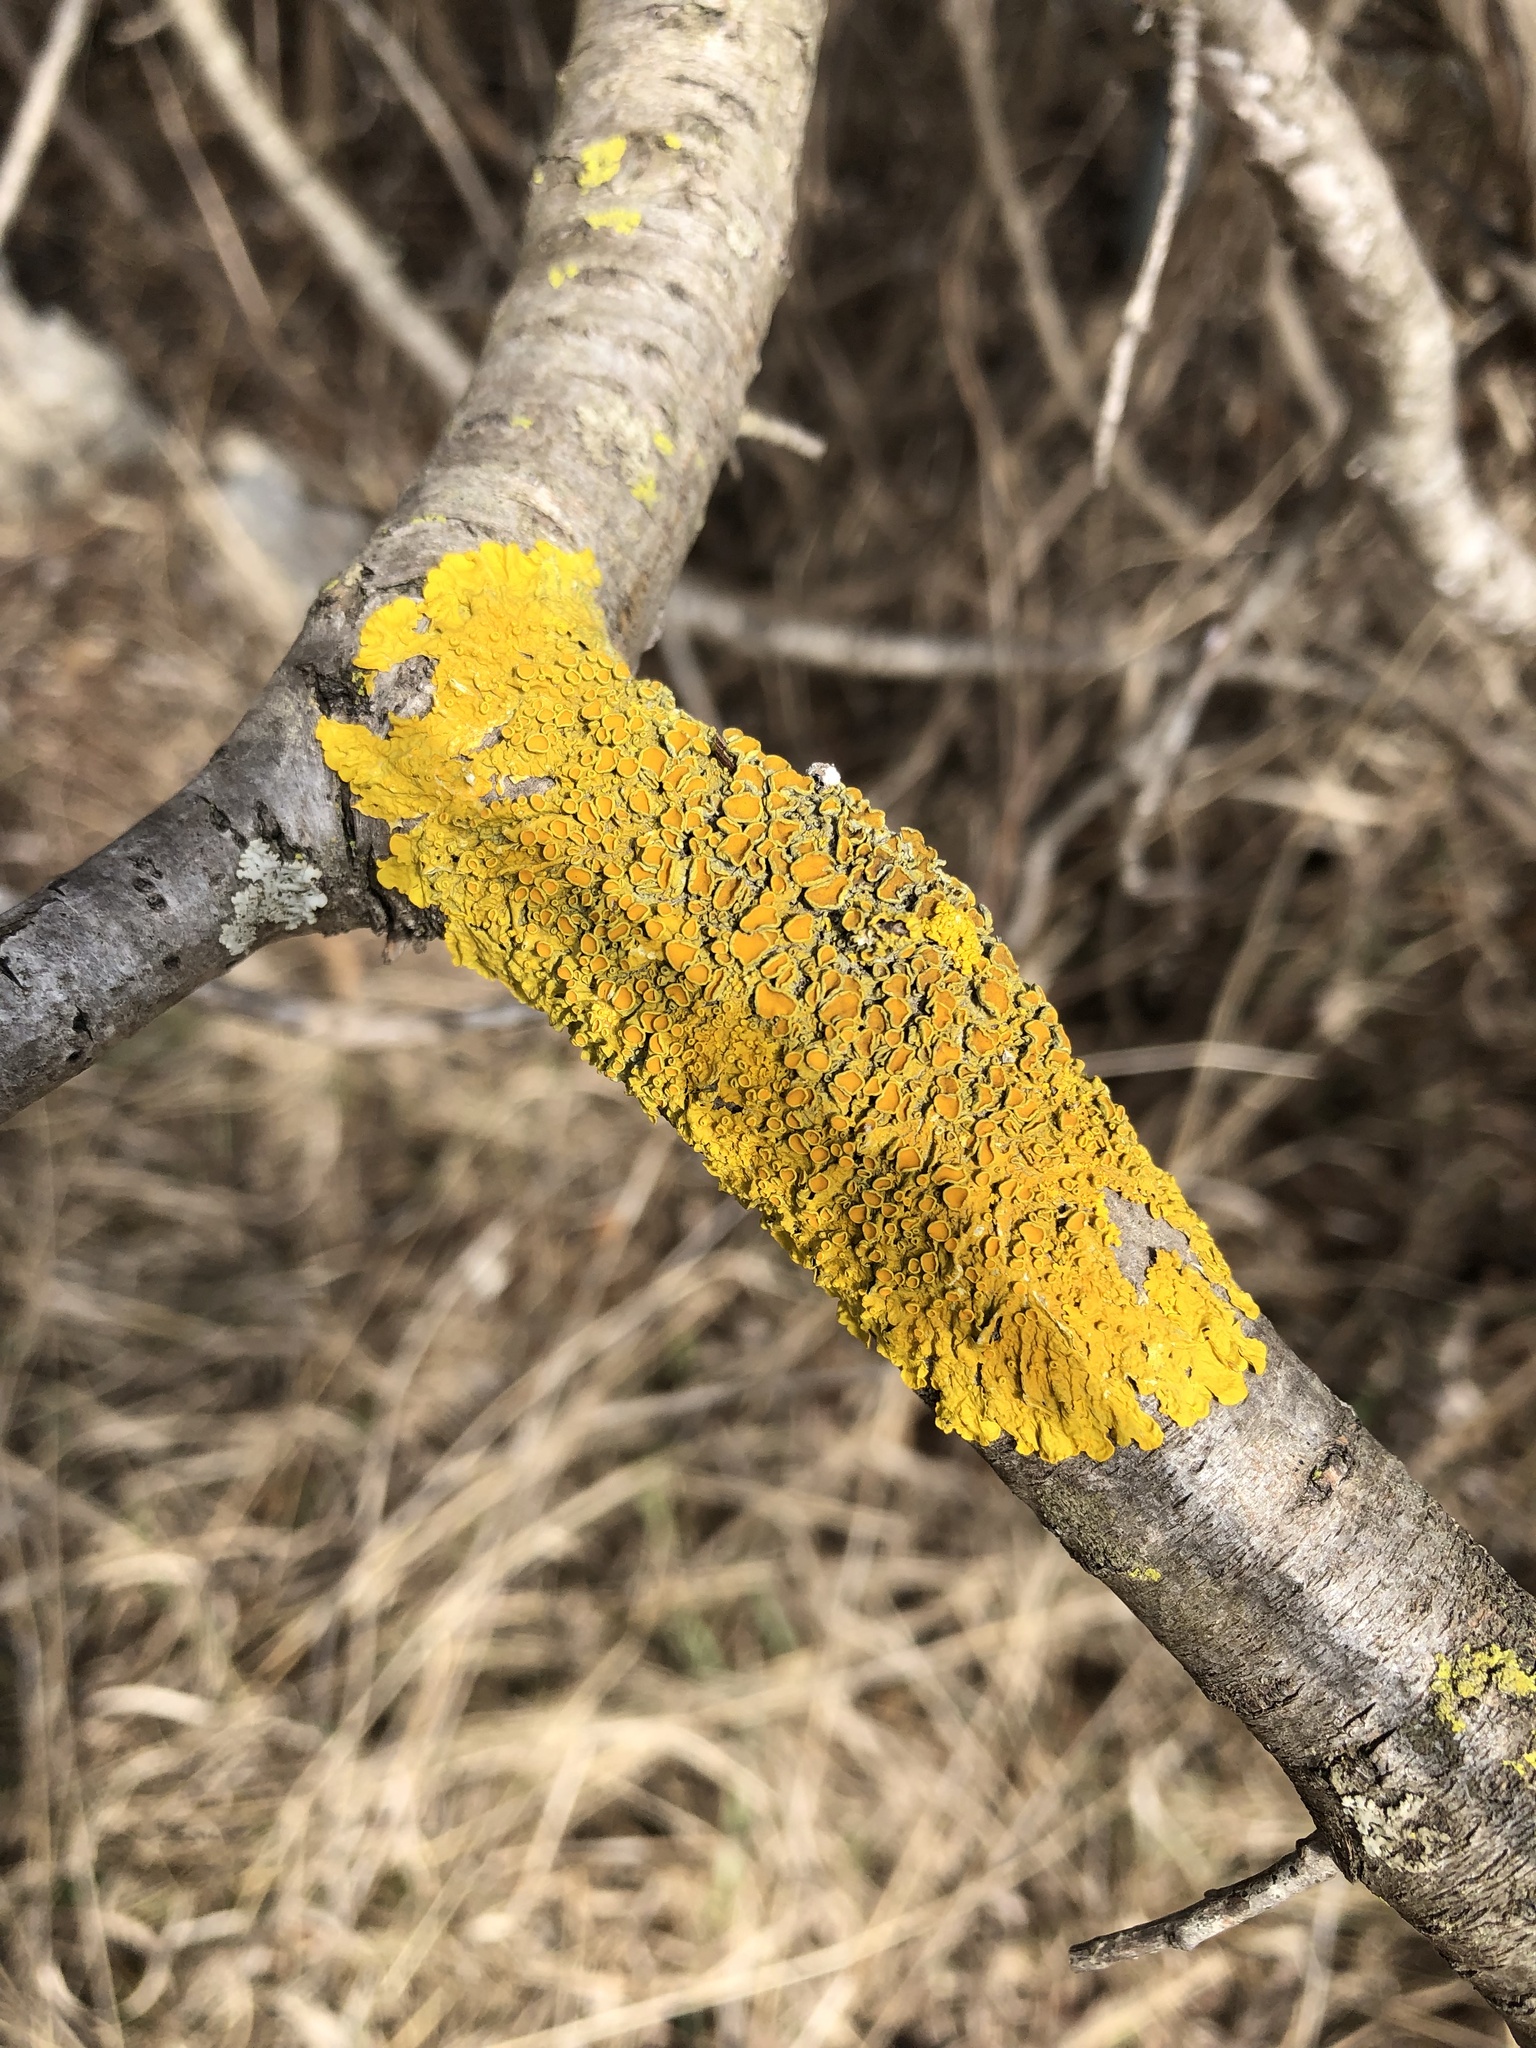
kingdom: Fungi
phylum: Ascomycota
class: Lecanoromycetes
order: Teloschistales
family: Teloschistaceae
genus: Xanthoria
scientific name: Xanthoria parietina
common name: Common orange lichen
